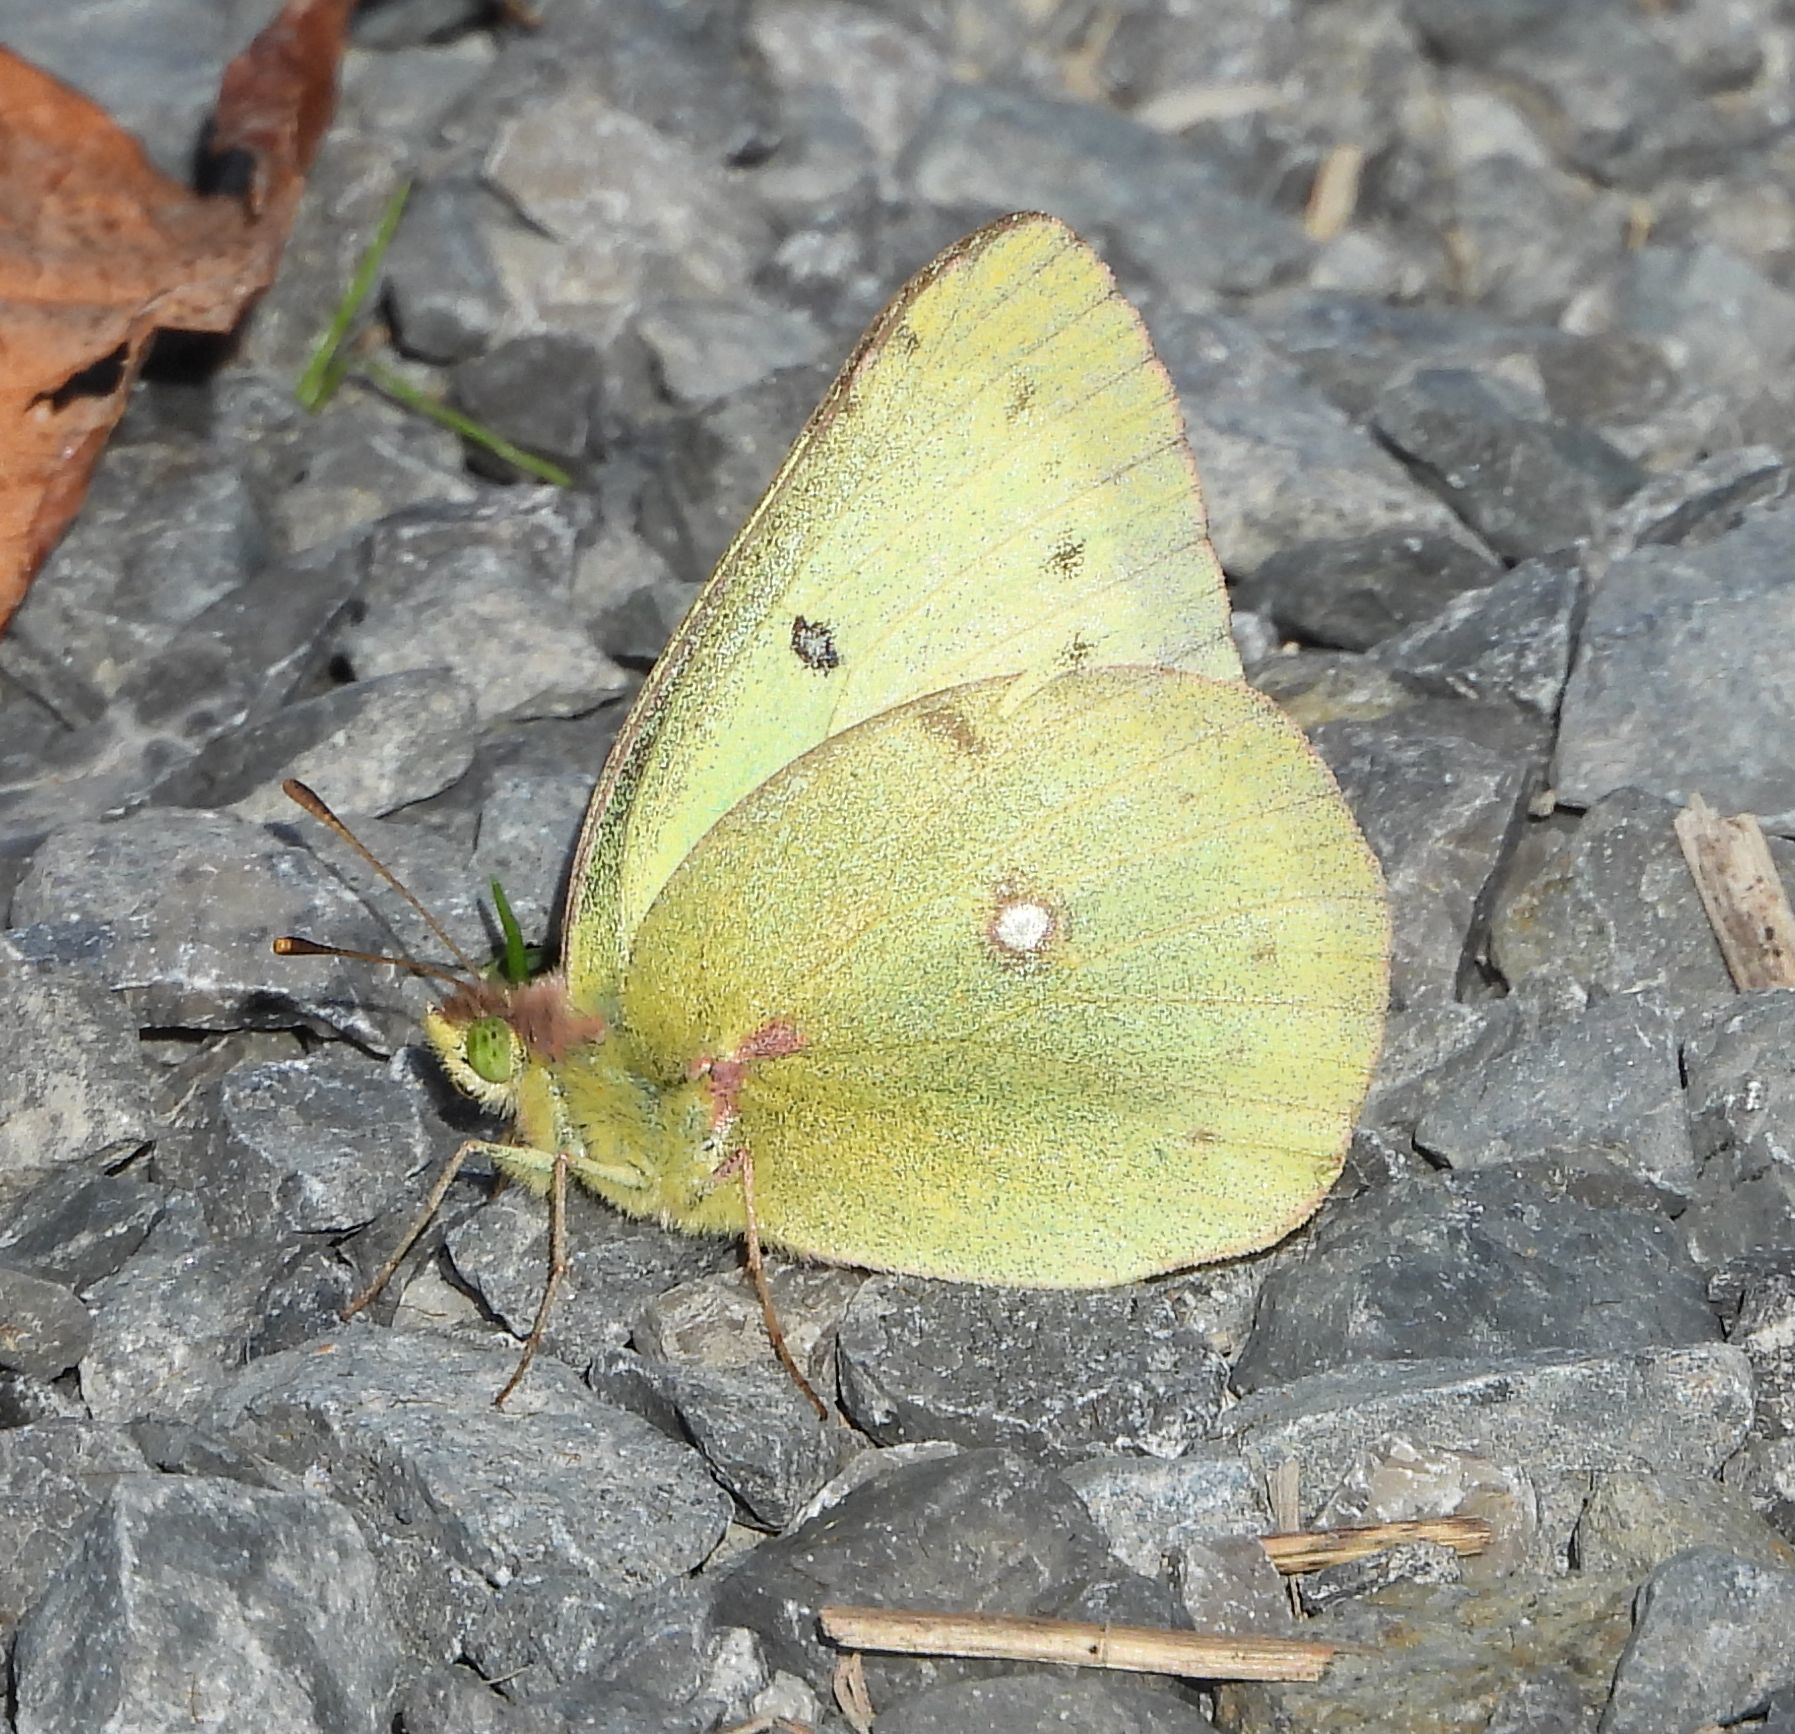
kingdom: Animalia
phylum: Arthropoda
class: Insecta
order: Lepidoptera
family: Pieridae
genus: Colias
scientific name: Colias philodice
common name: Clouded sulphur
